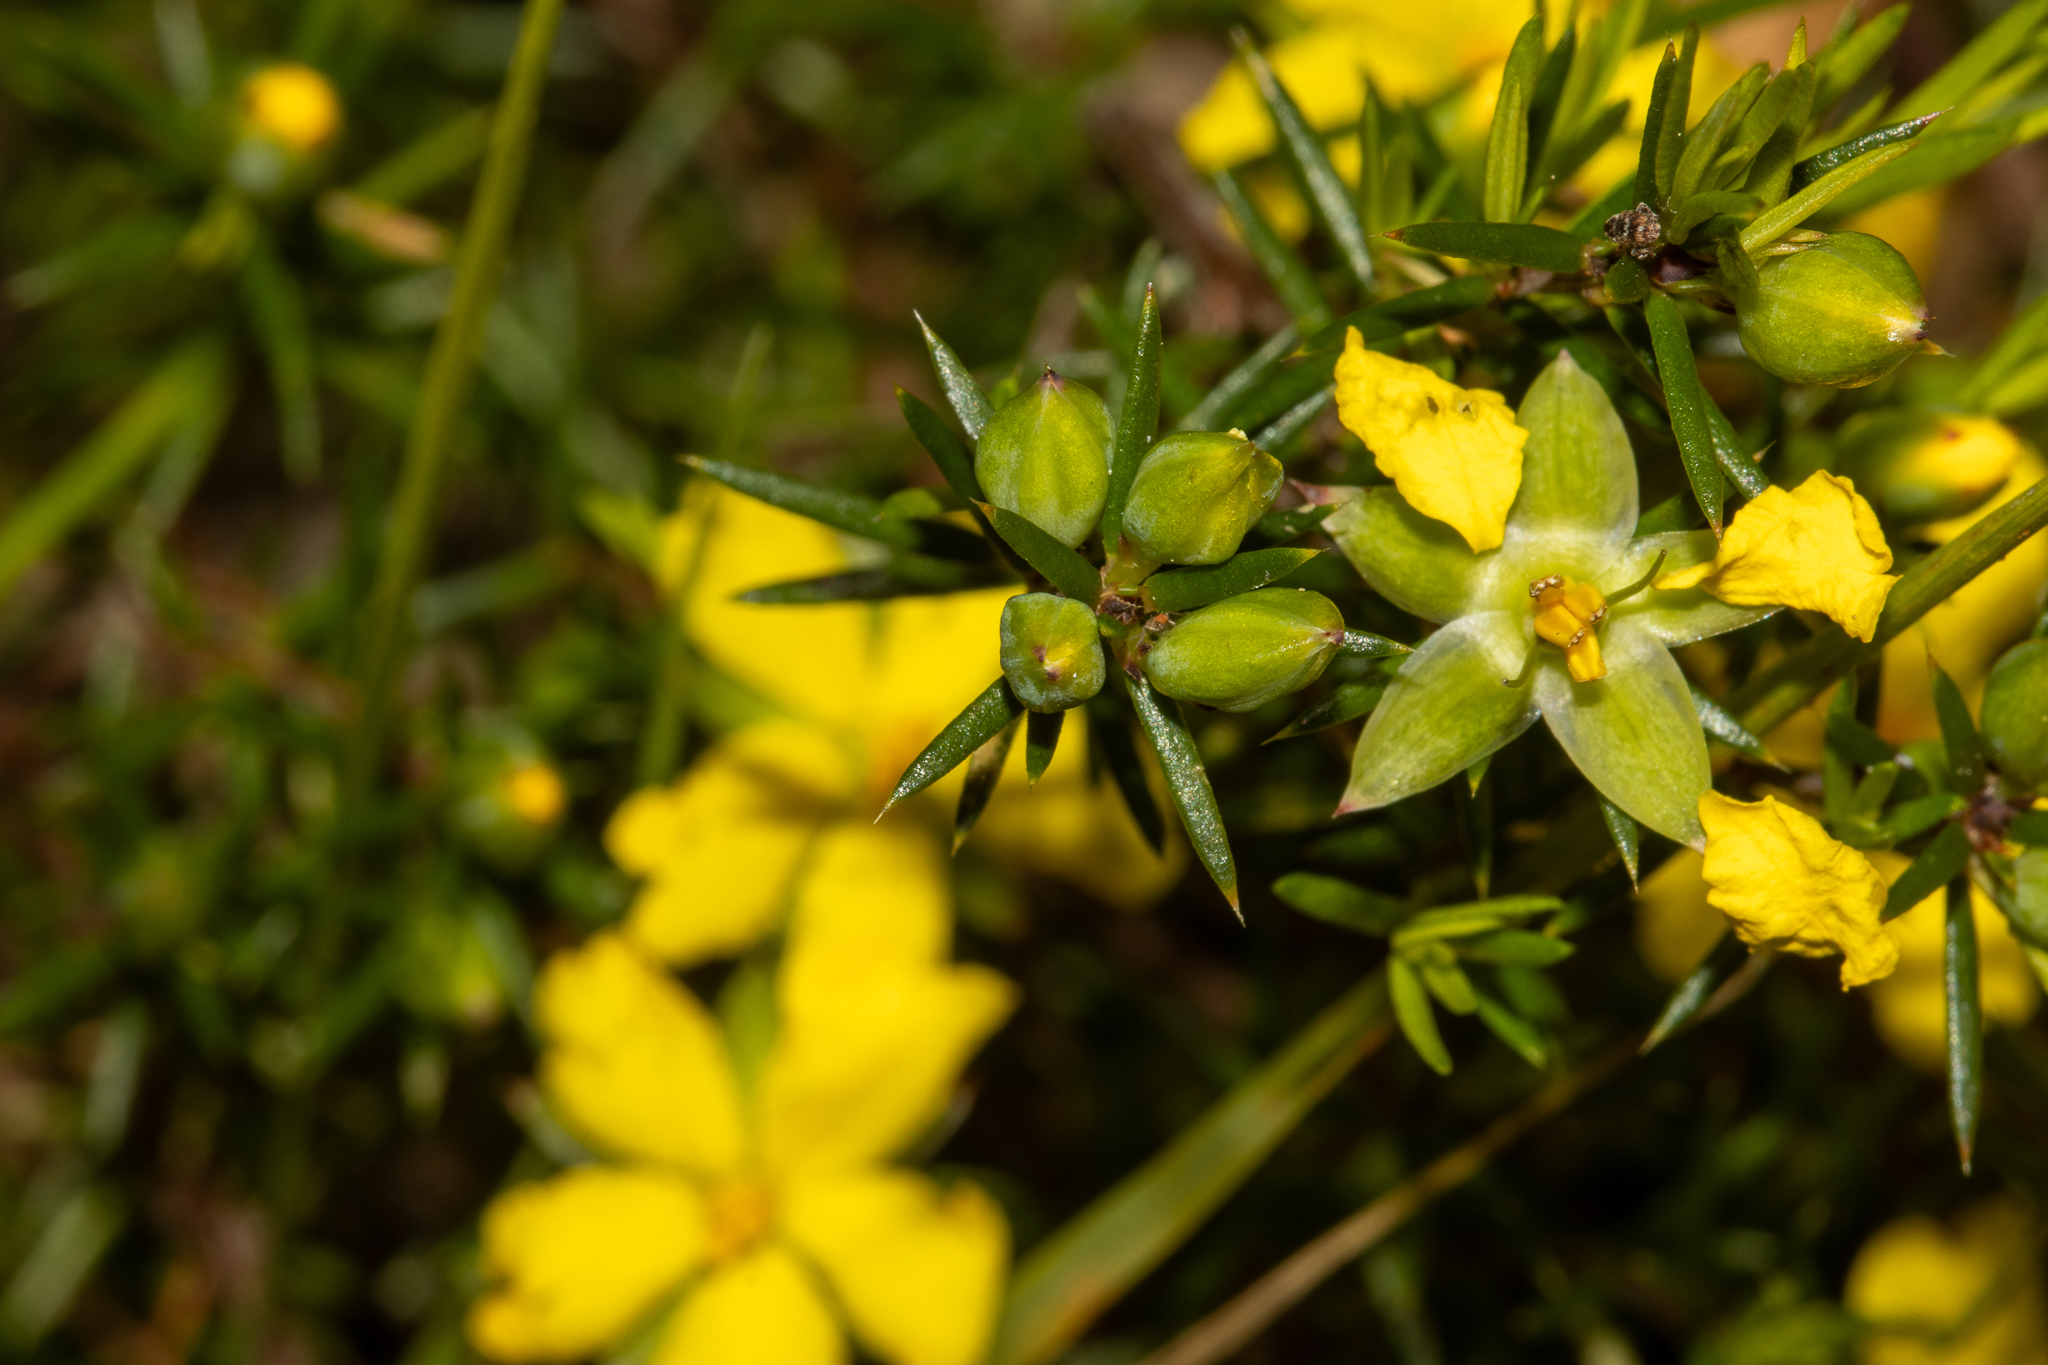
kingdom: Plantae
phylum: Tracheophyta
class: Magnoliopsida
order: Dilleniales
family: Dilleniaceae
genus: Hibbertia
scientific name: Hibbertia exutiacies
